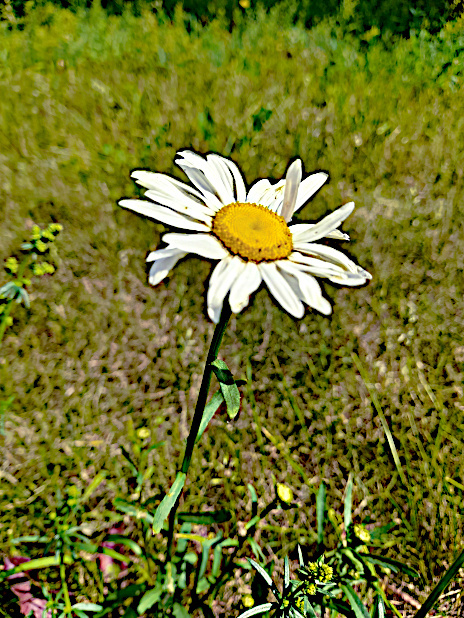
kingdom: Plantae
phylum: Tracheophyta
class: Magnoliopsida
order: Asterales
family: Asteraceae
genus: Leucanthemum
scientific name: Leucanthemum vulgare
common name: Oxeye daisy
